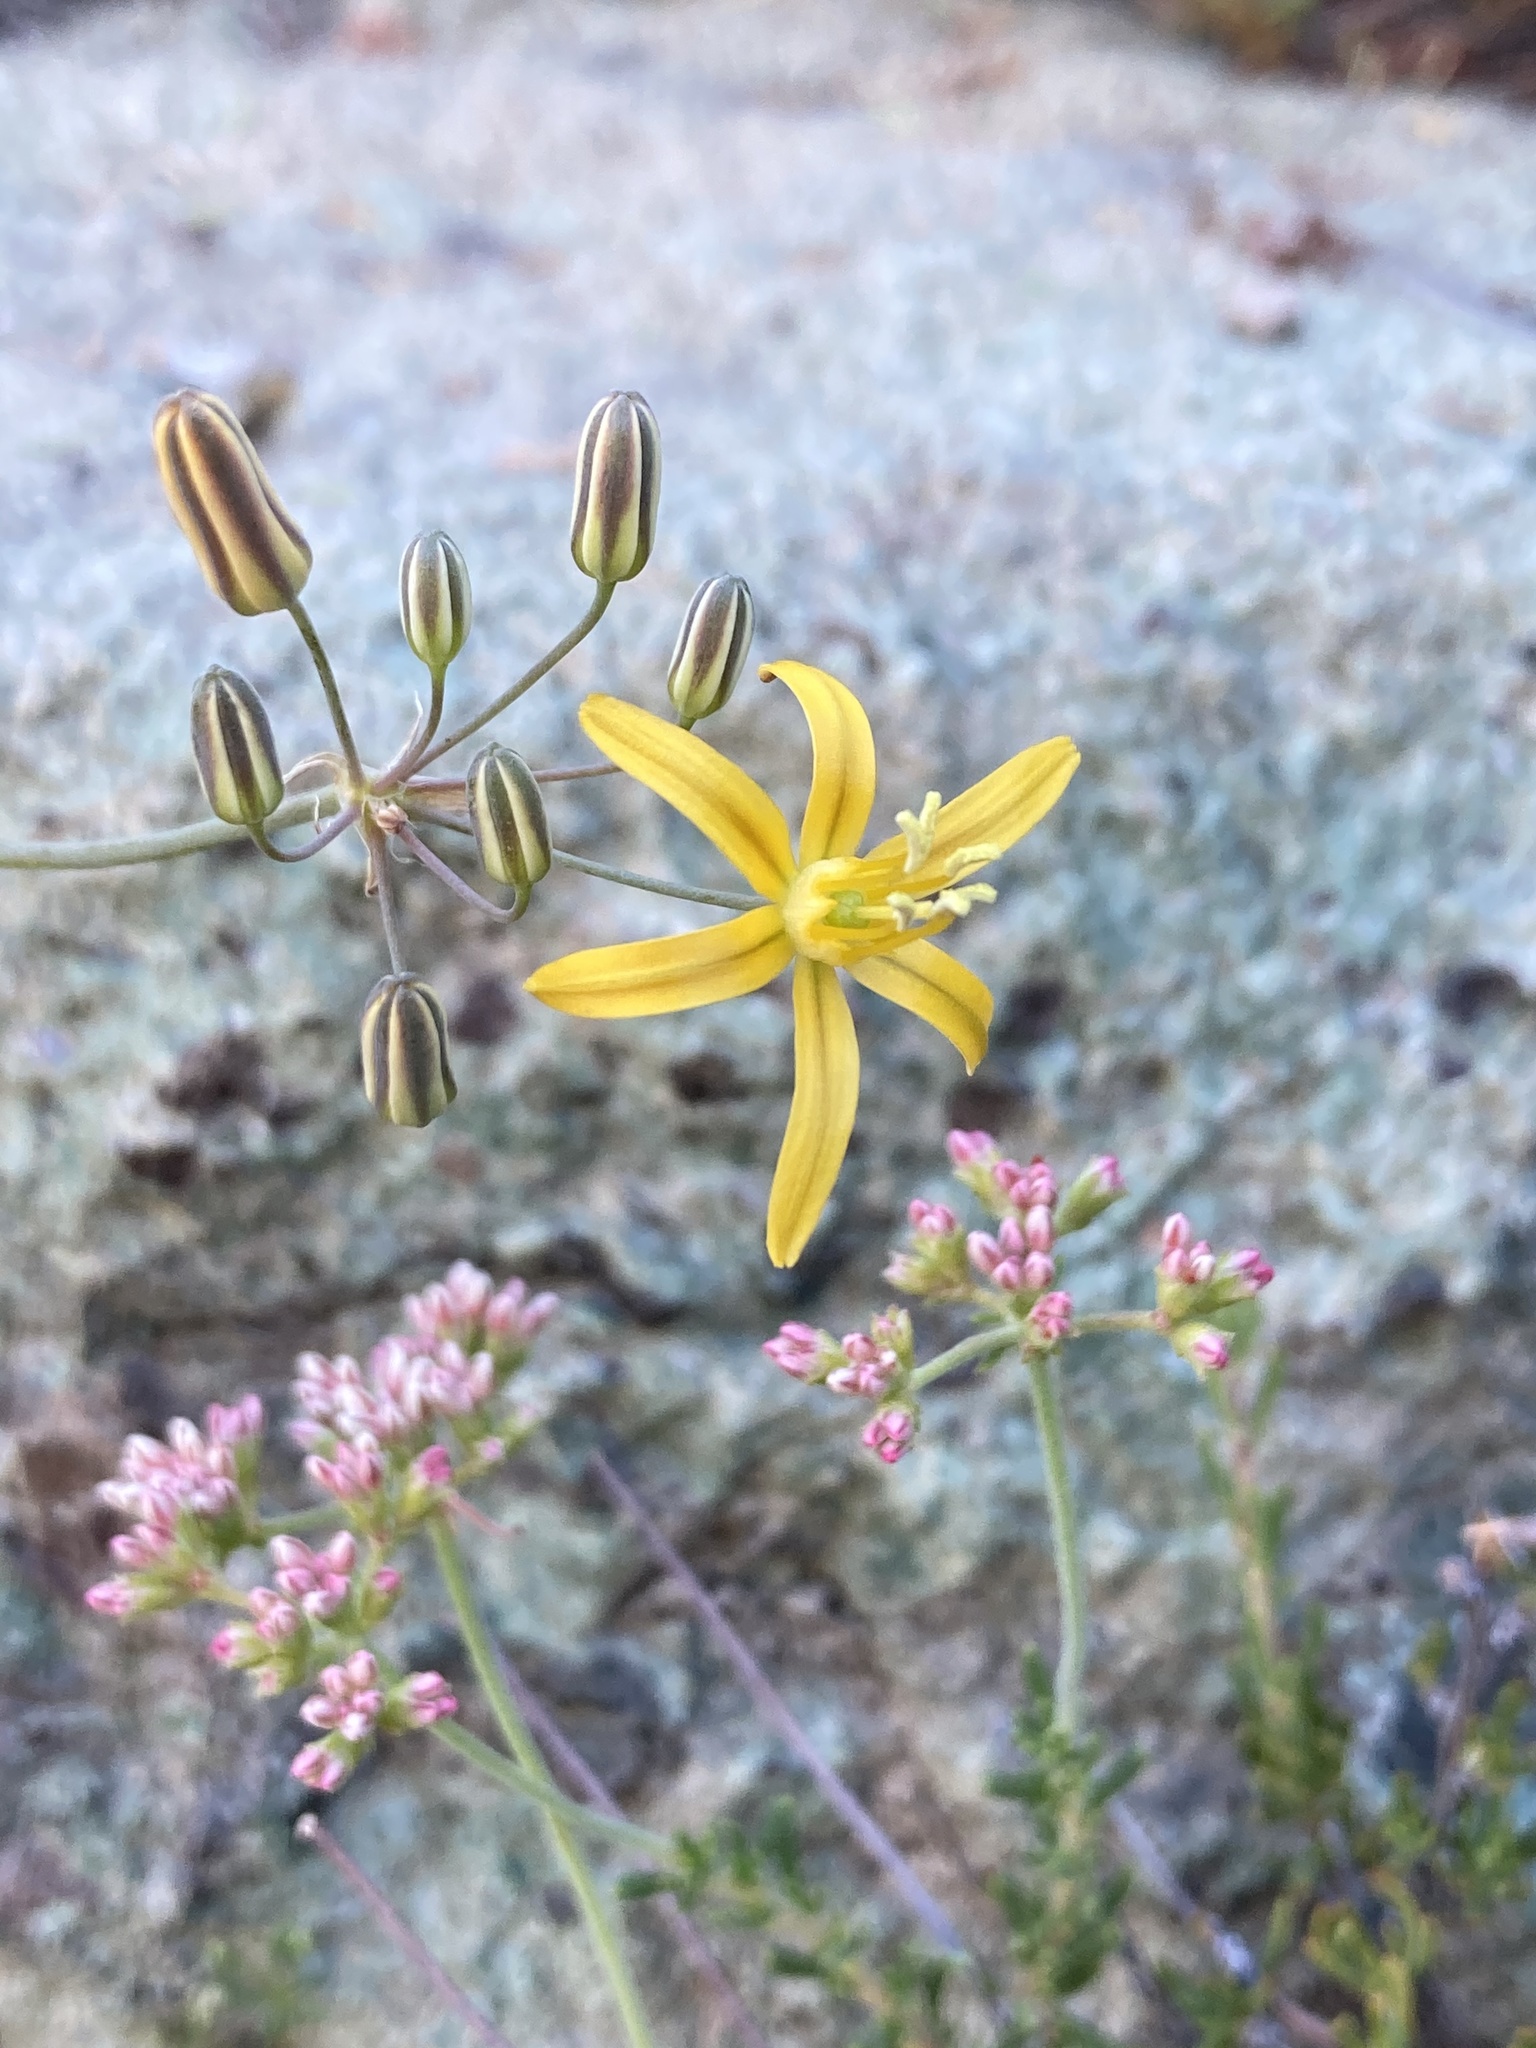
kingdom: Plantae
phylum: Tracheophyta
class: Liliopsida
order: Asparagales
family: Asparagaceae
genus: Bloomeria
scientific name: Bloomeria crocea
